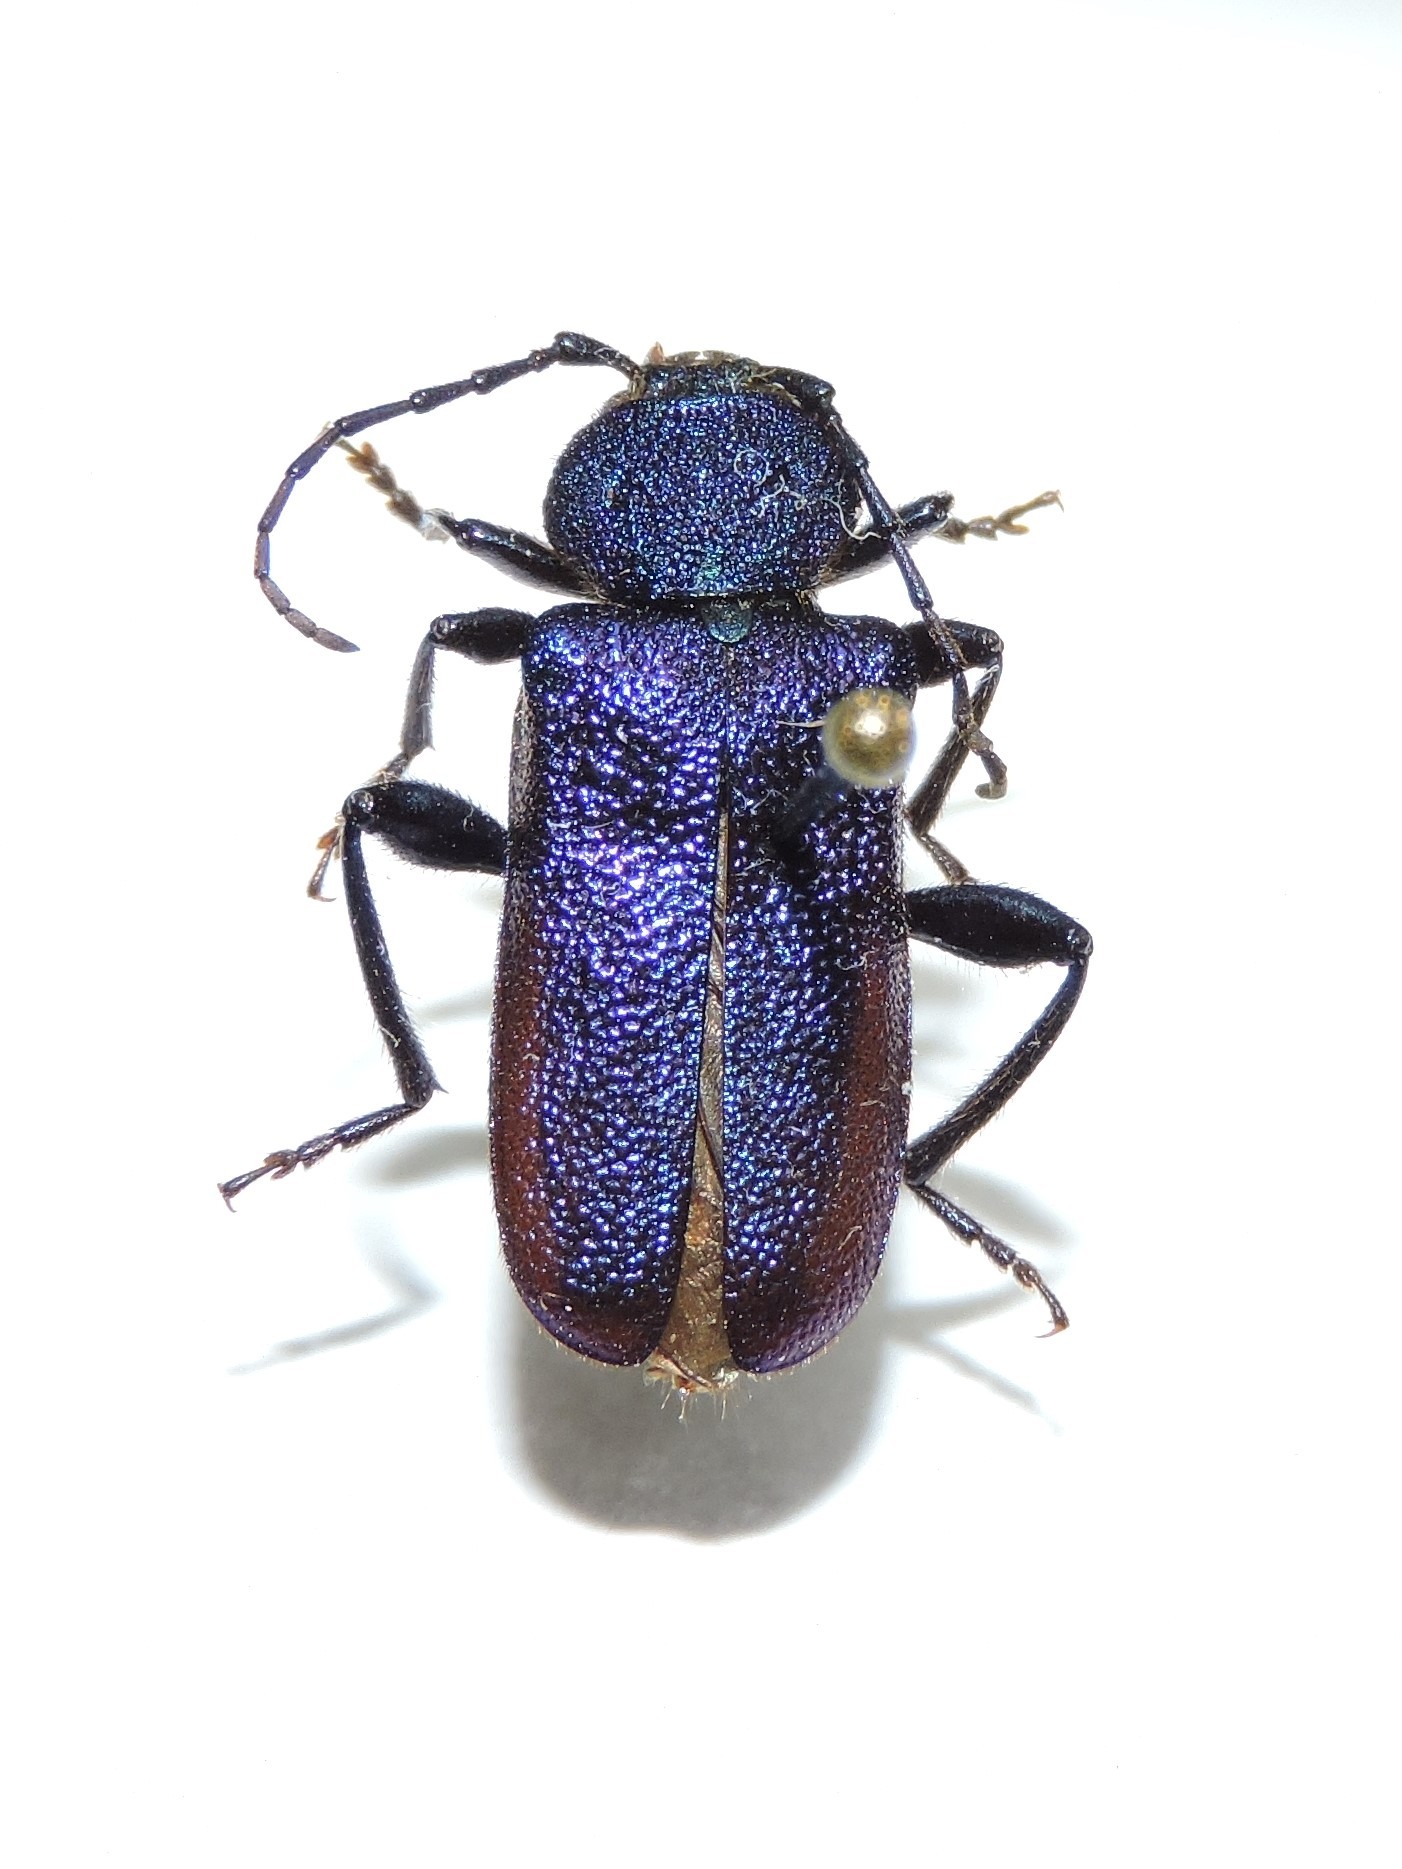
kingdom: Animalia
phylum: Arthropoda
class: Insecta
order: Coleoptera
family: Cerambycidae
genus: Callidium
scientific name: Callidium violaceum
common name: Violet tanbark beetle
